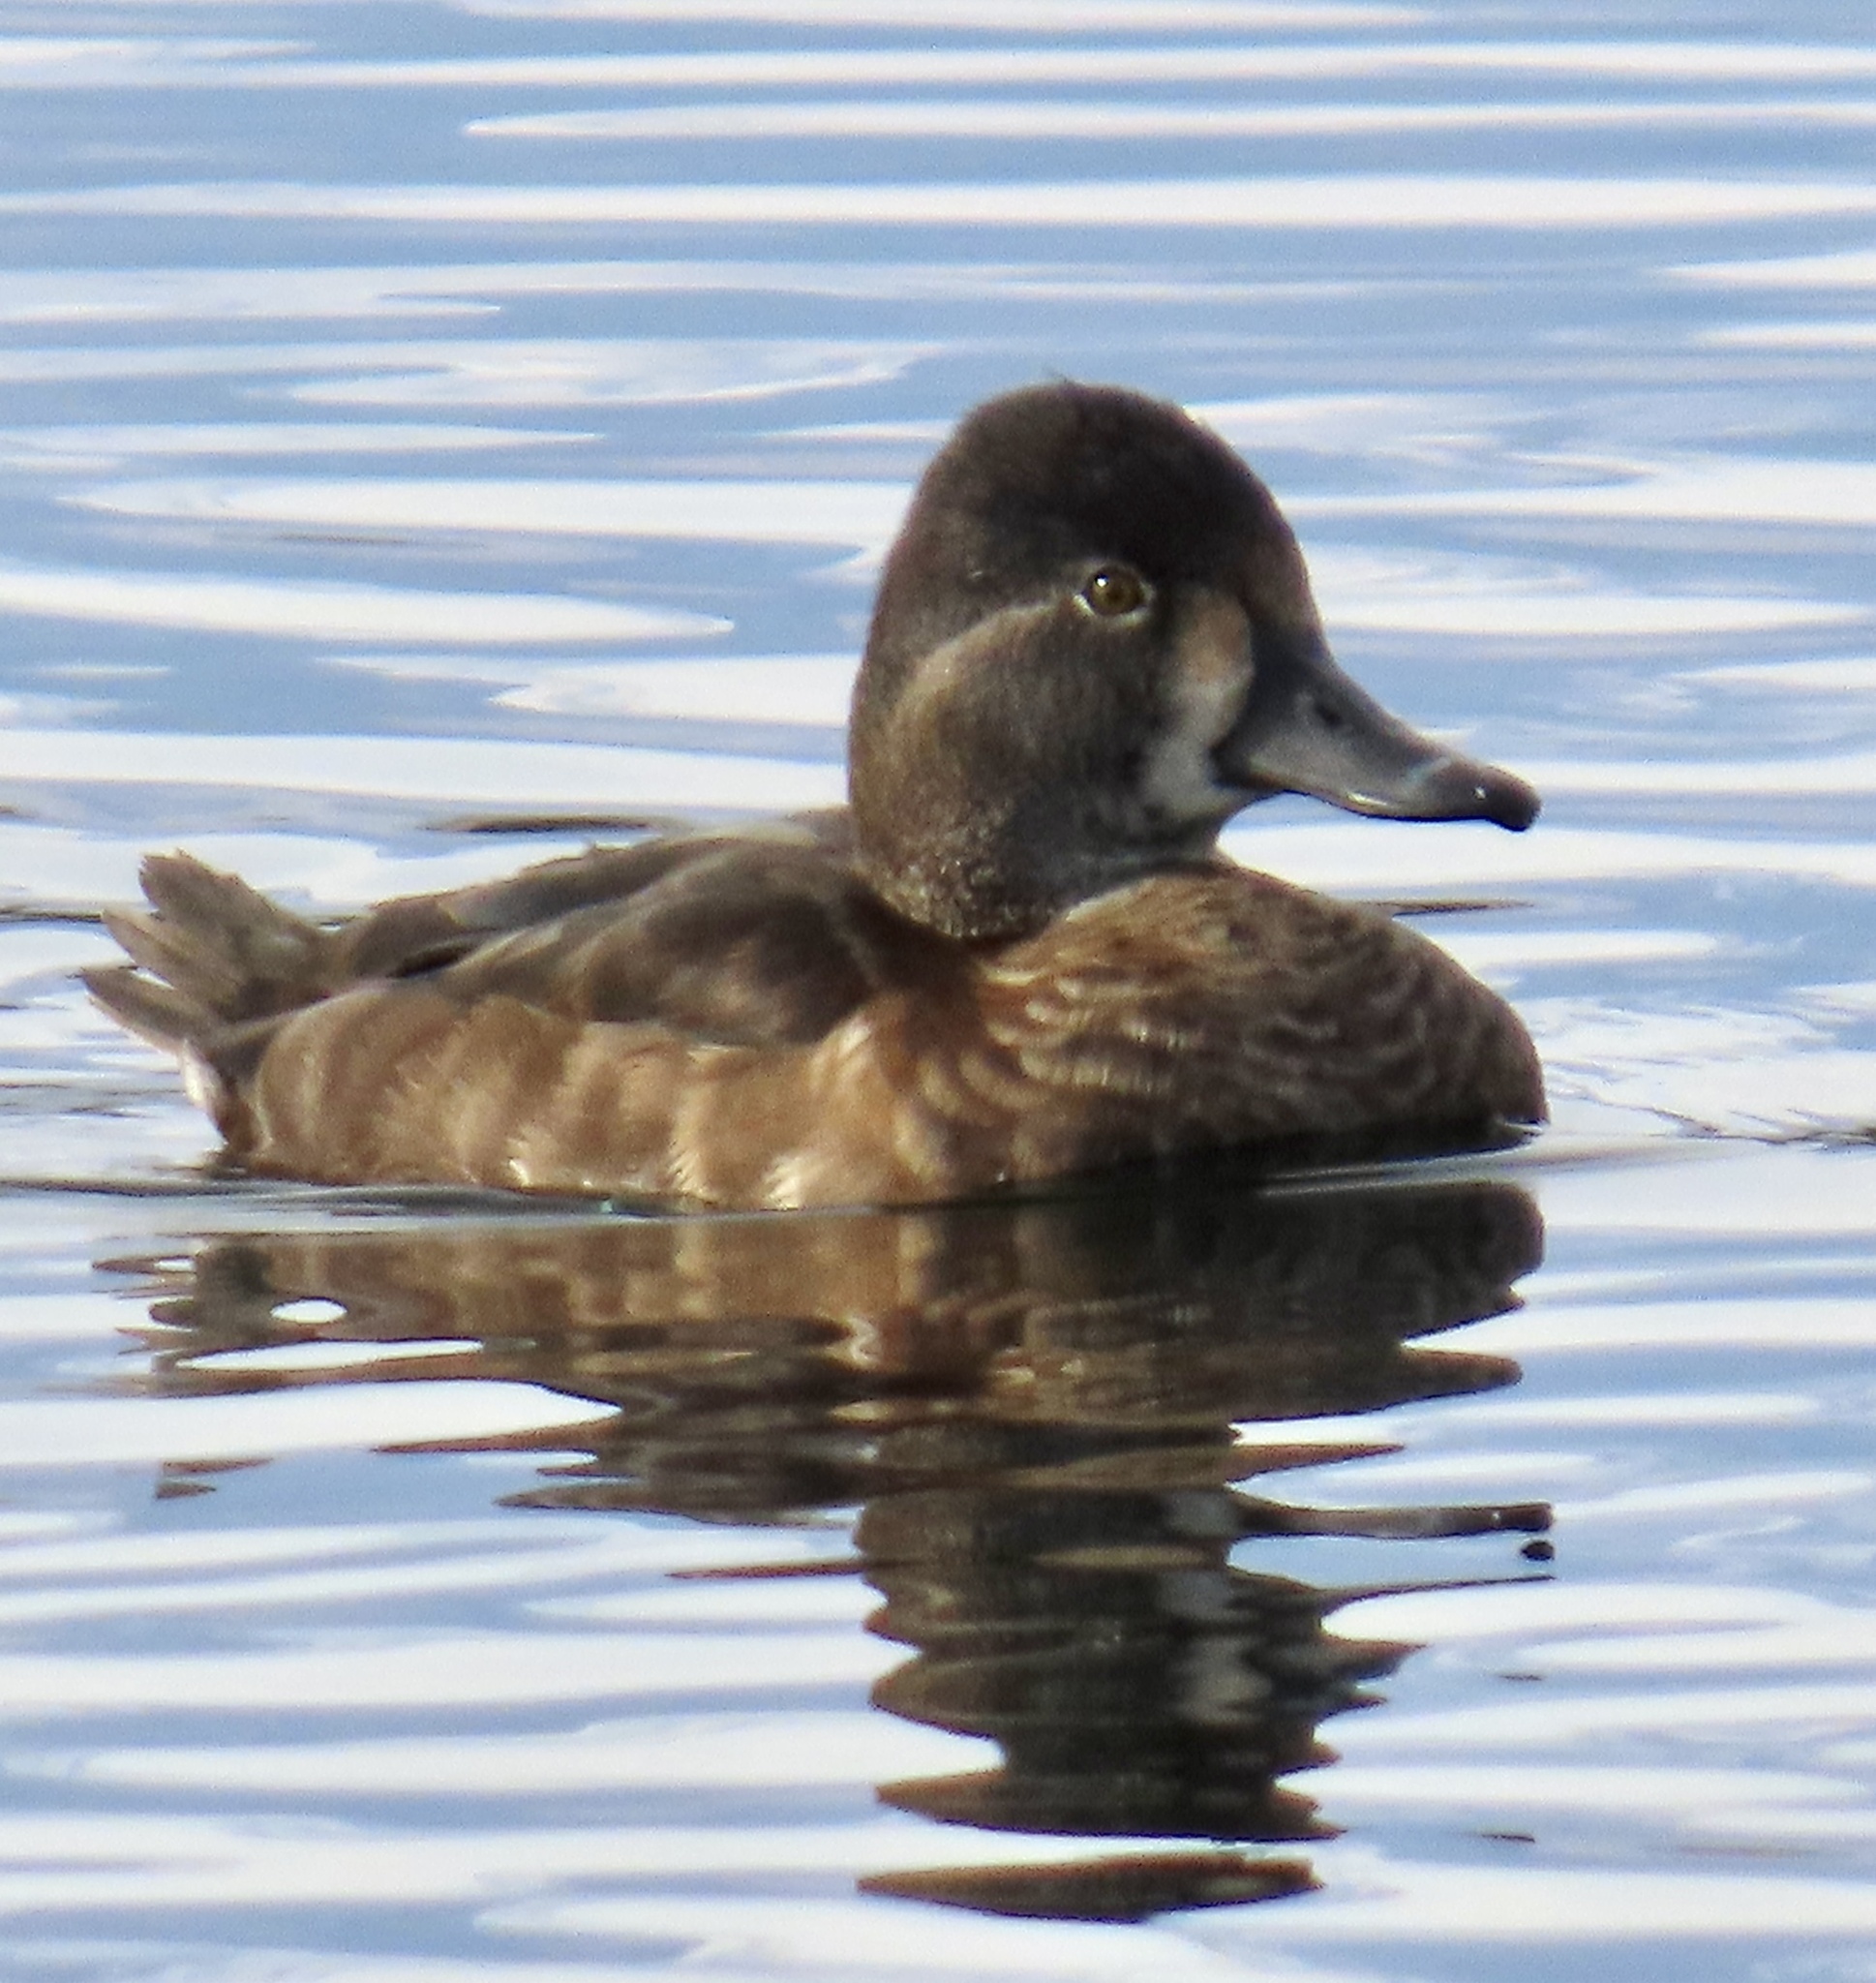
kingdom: Animalia
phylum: Chordata
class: Aves
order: Anseriformes
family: Anatidae
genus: Aythya
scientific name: Aythya collaris
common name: Ring-necked duck
